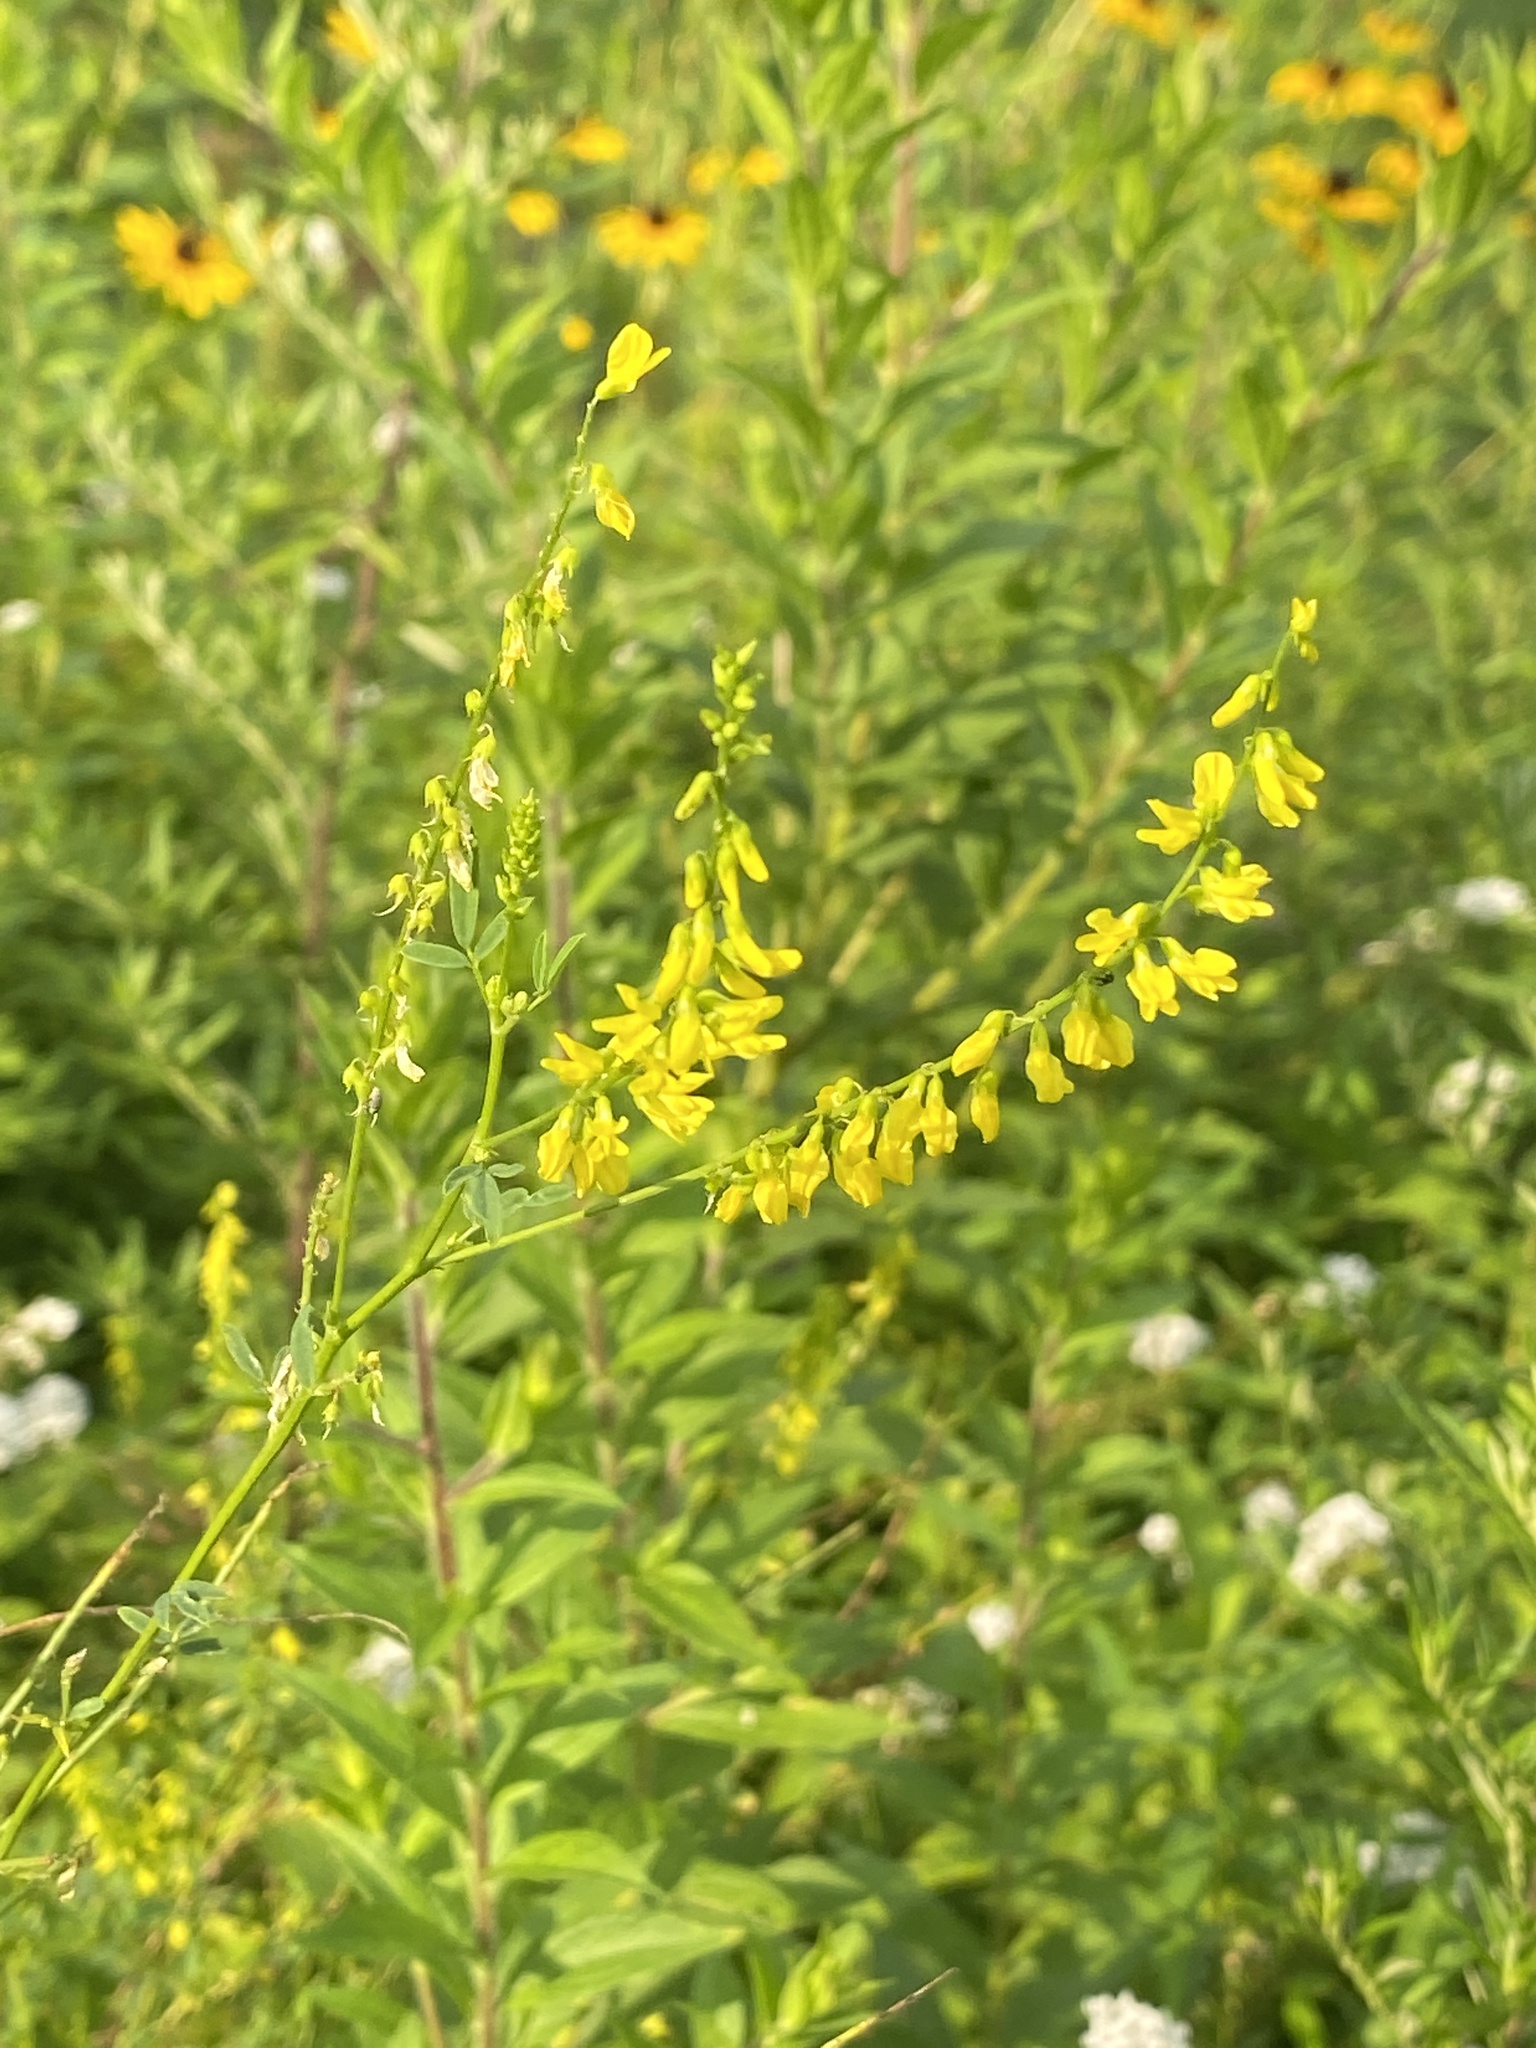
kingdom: Plantae
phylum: Tracheophyta
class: Magnoliopsida
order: Fabales
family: Fabaceae
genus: Melilotus
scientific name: Melilotus officinalis
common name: Sweetclover
